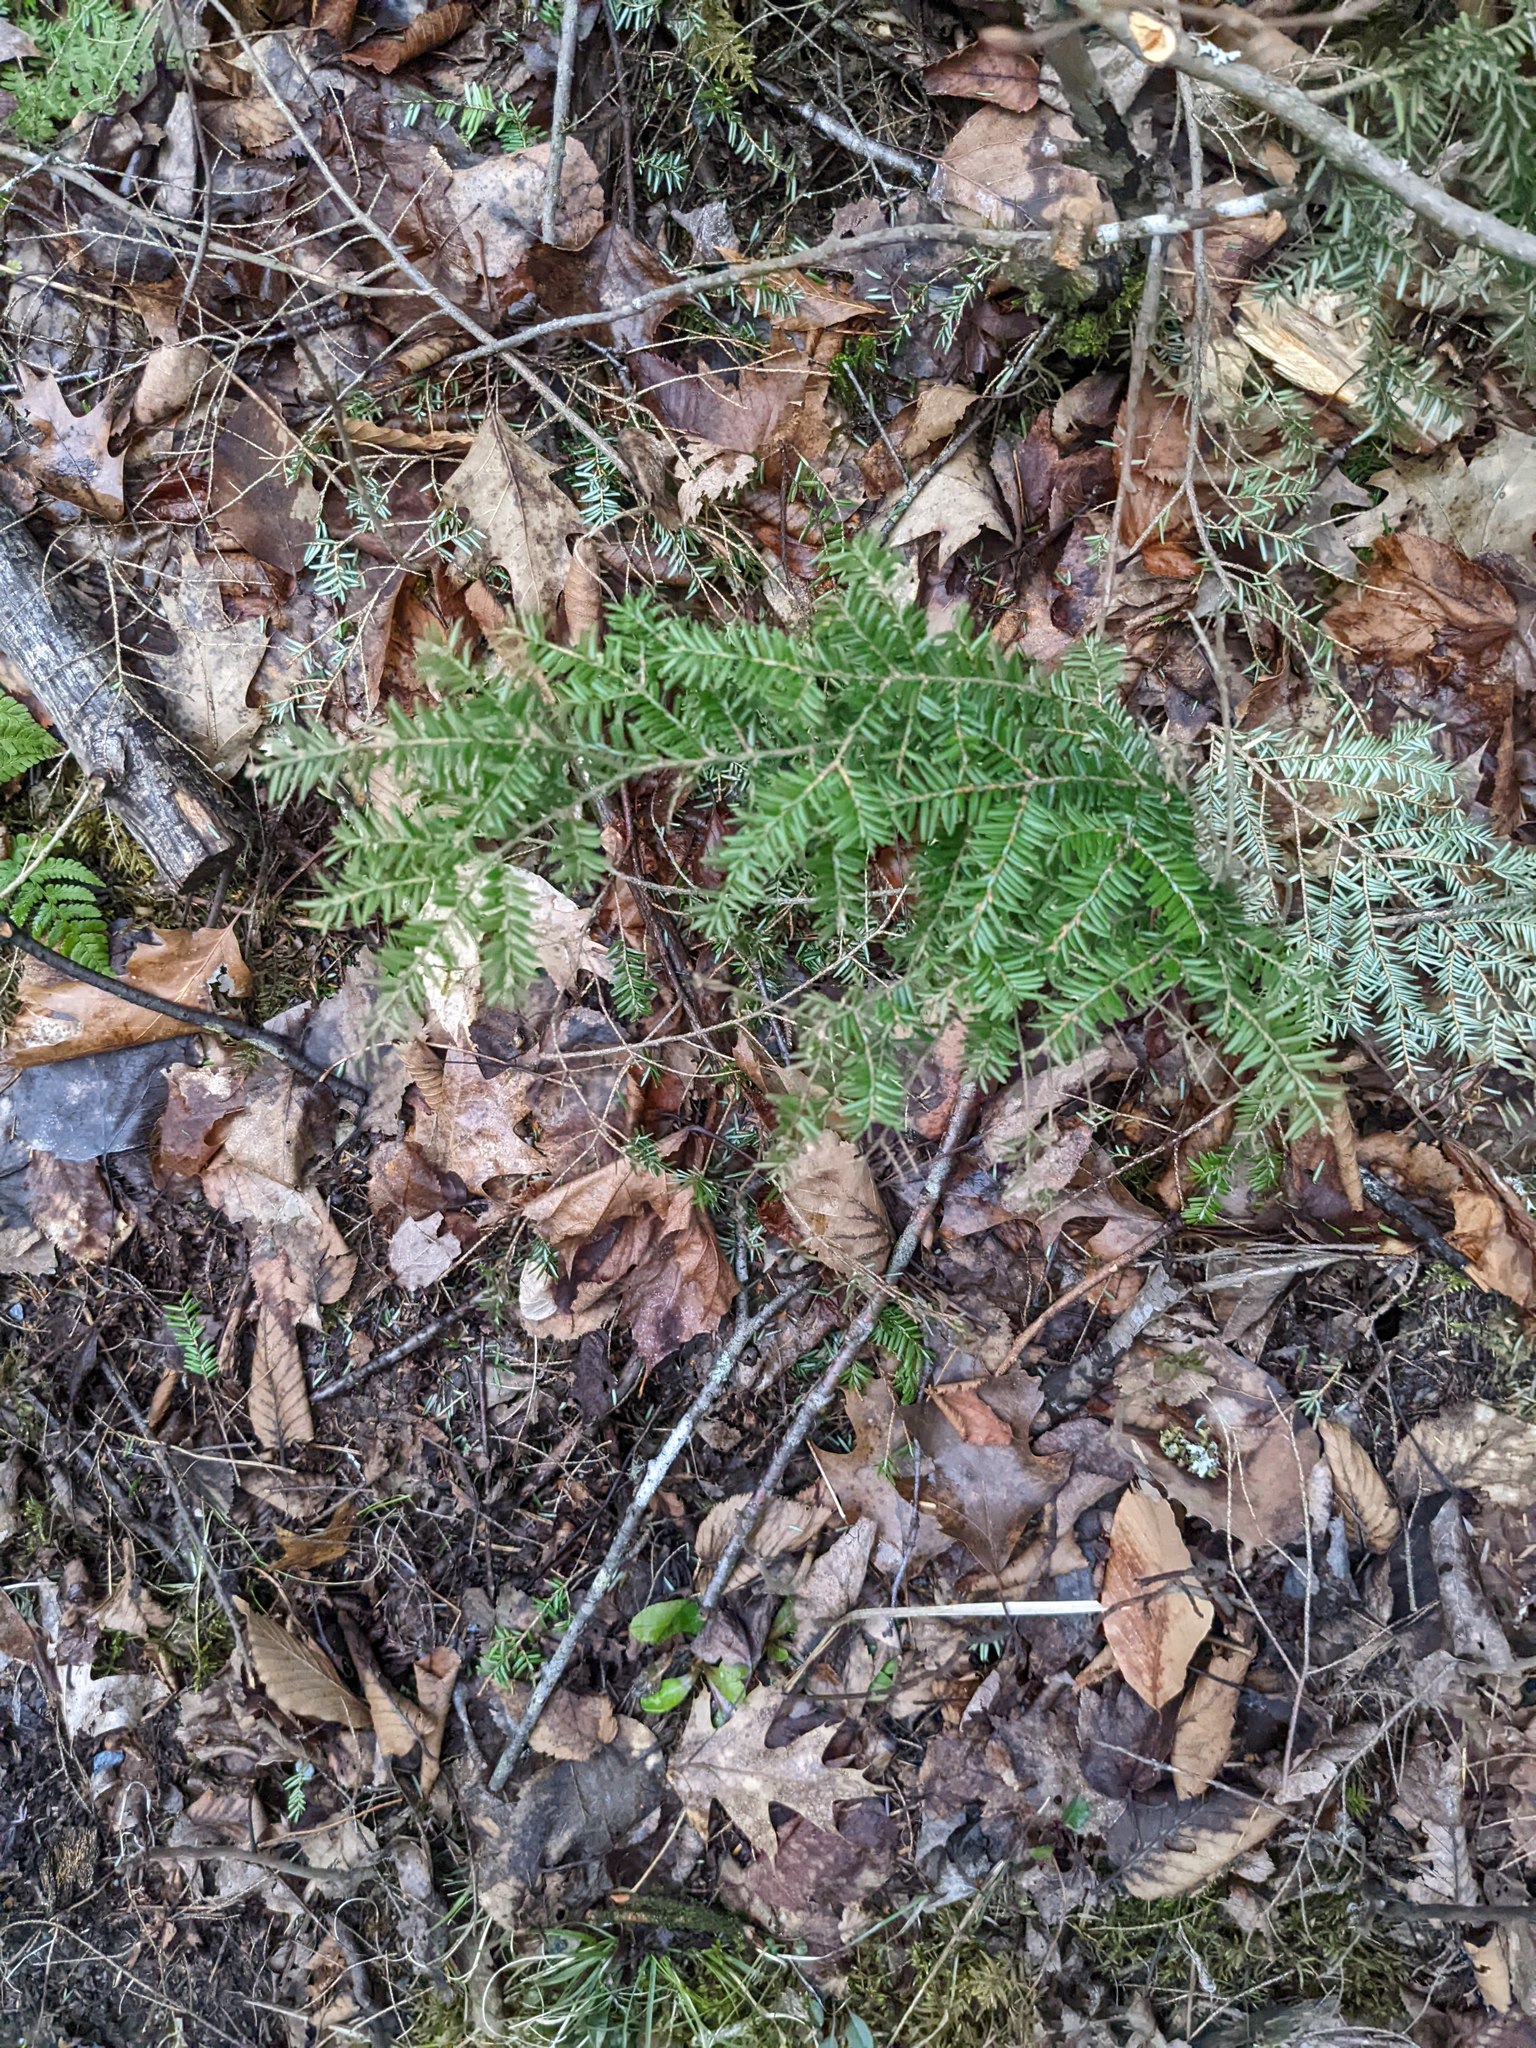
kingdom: Plantae
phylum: Tracheophyta
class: Pinopsida
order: Pinales
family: Pinaceae
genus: Tsuga
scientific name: Tsuga canadensis
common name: Eastern hemlock
